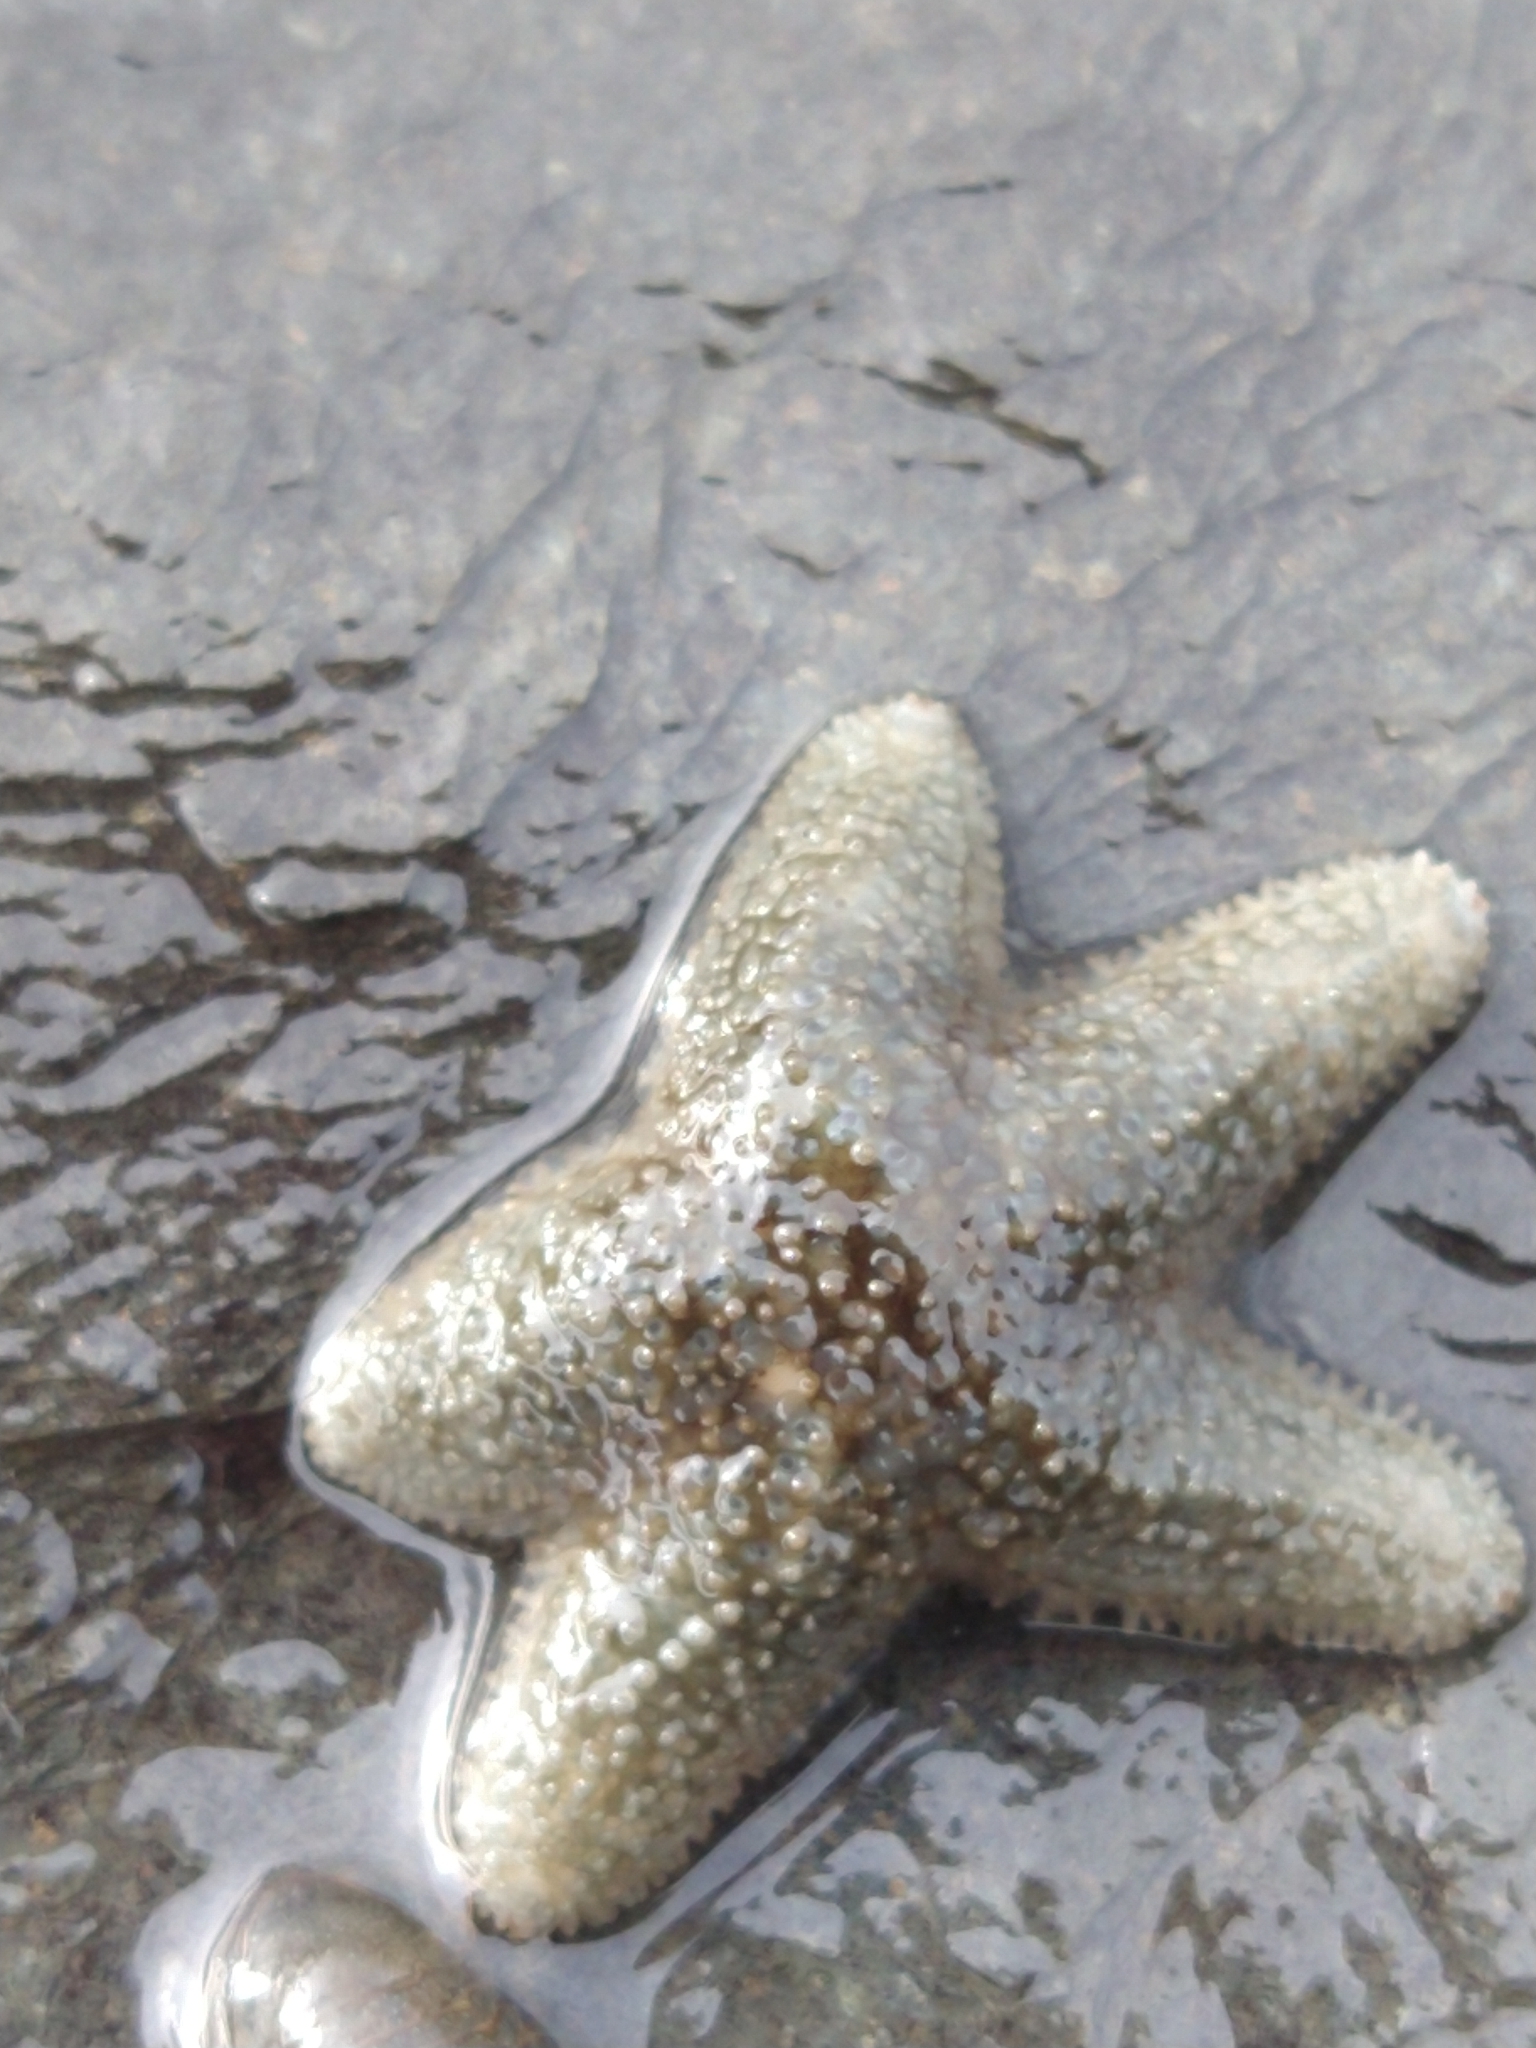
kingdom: Animalia
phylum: Echinodermata
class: Asteroidea
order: Forcipulatida
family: Asteriidae
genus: Anasterias
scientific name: Anasterias antarctica
